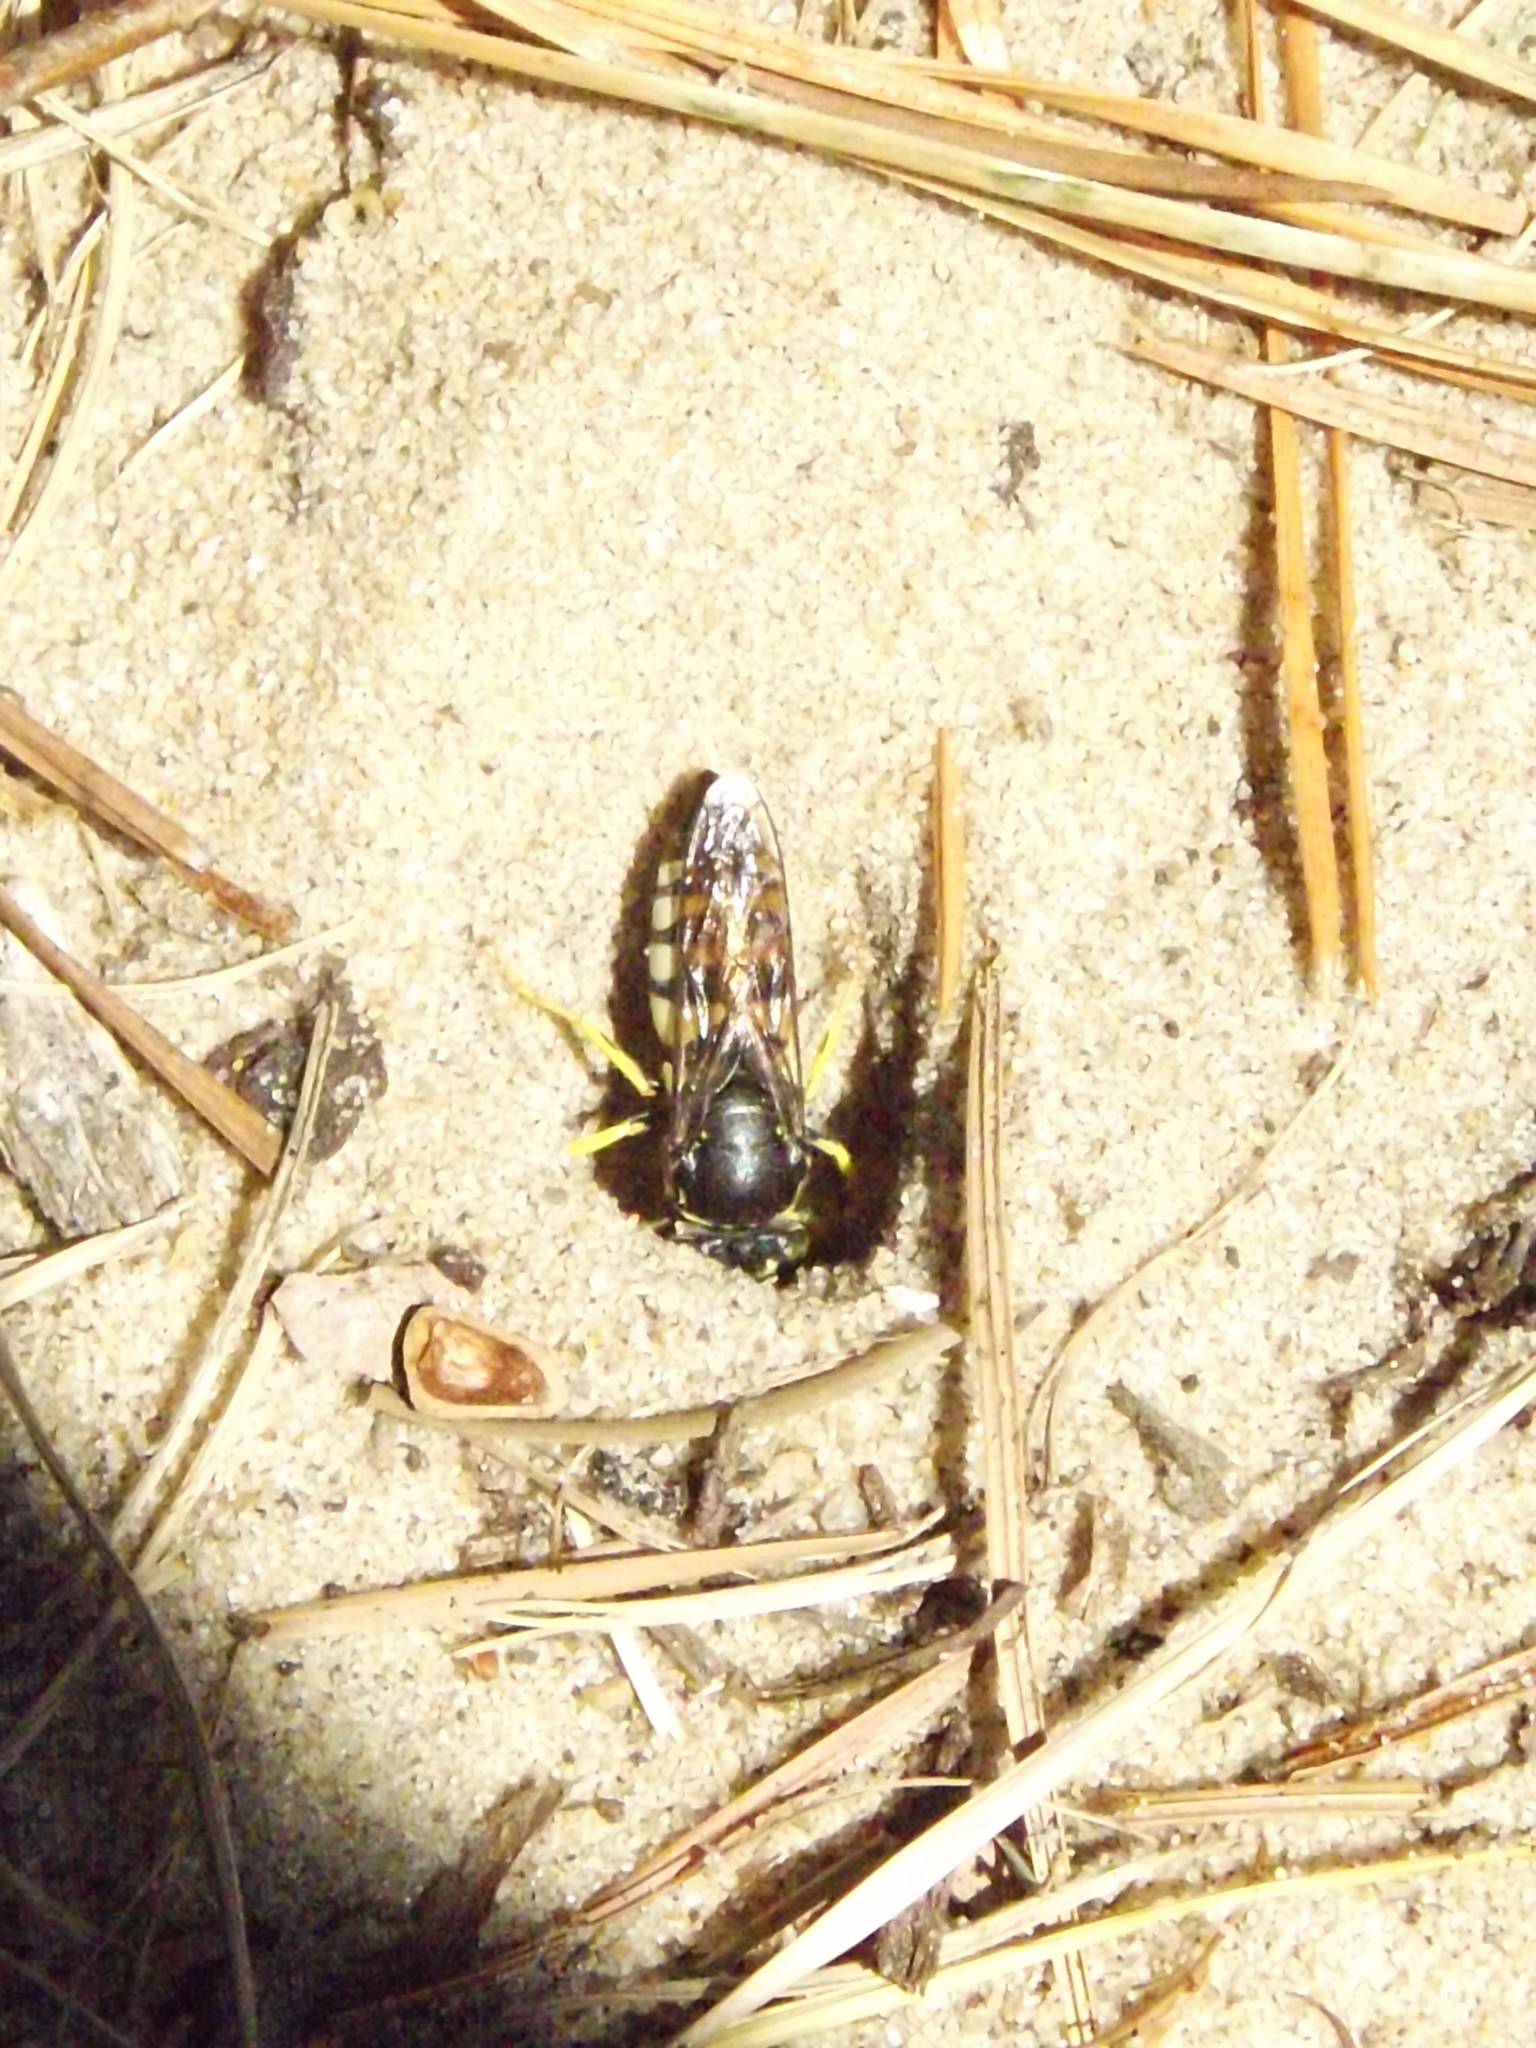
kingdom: Animalia
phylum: Arthropoda
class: Insecta
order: Hymenoptera
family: Crabronidae
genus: Bicyrtes
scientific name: Bicyrtes quadrifasciatus
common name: Four-banded stink bug hunter wasp
